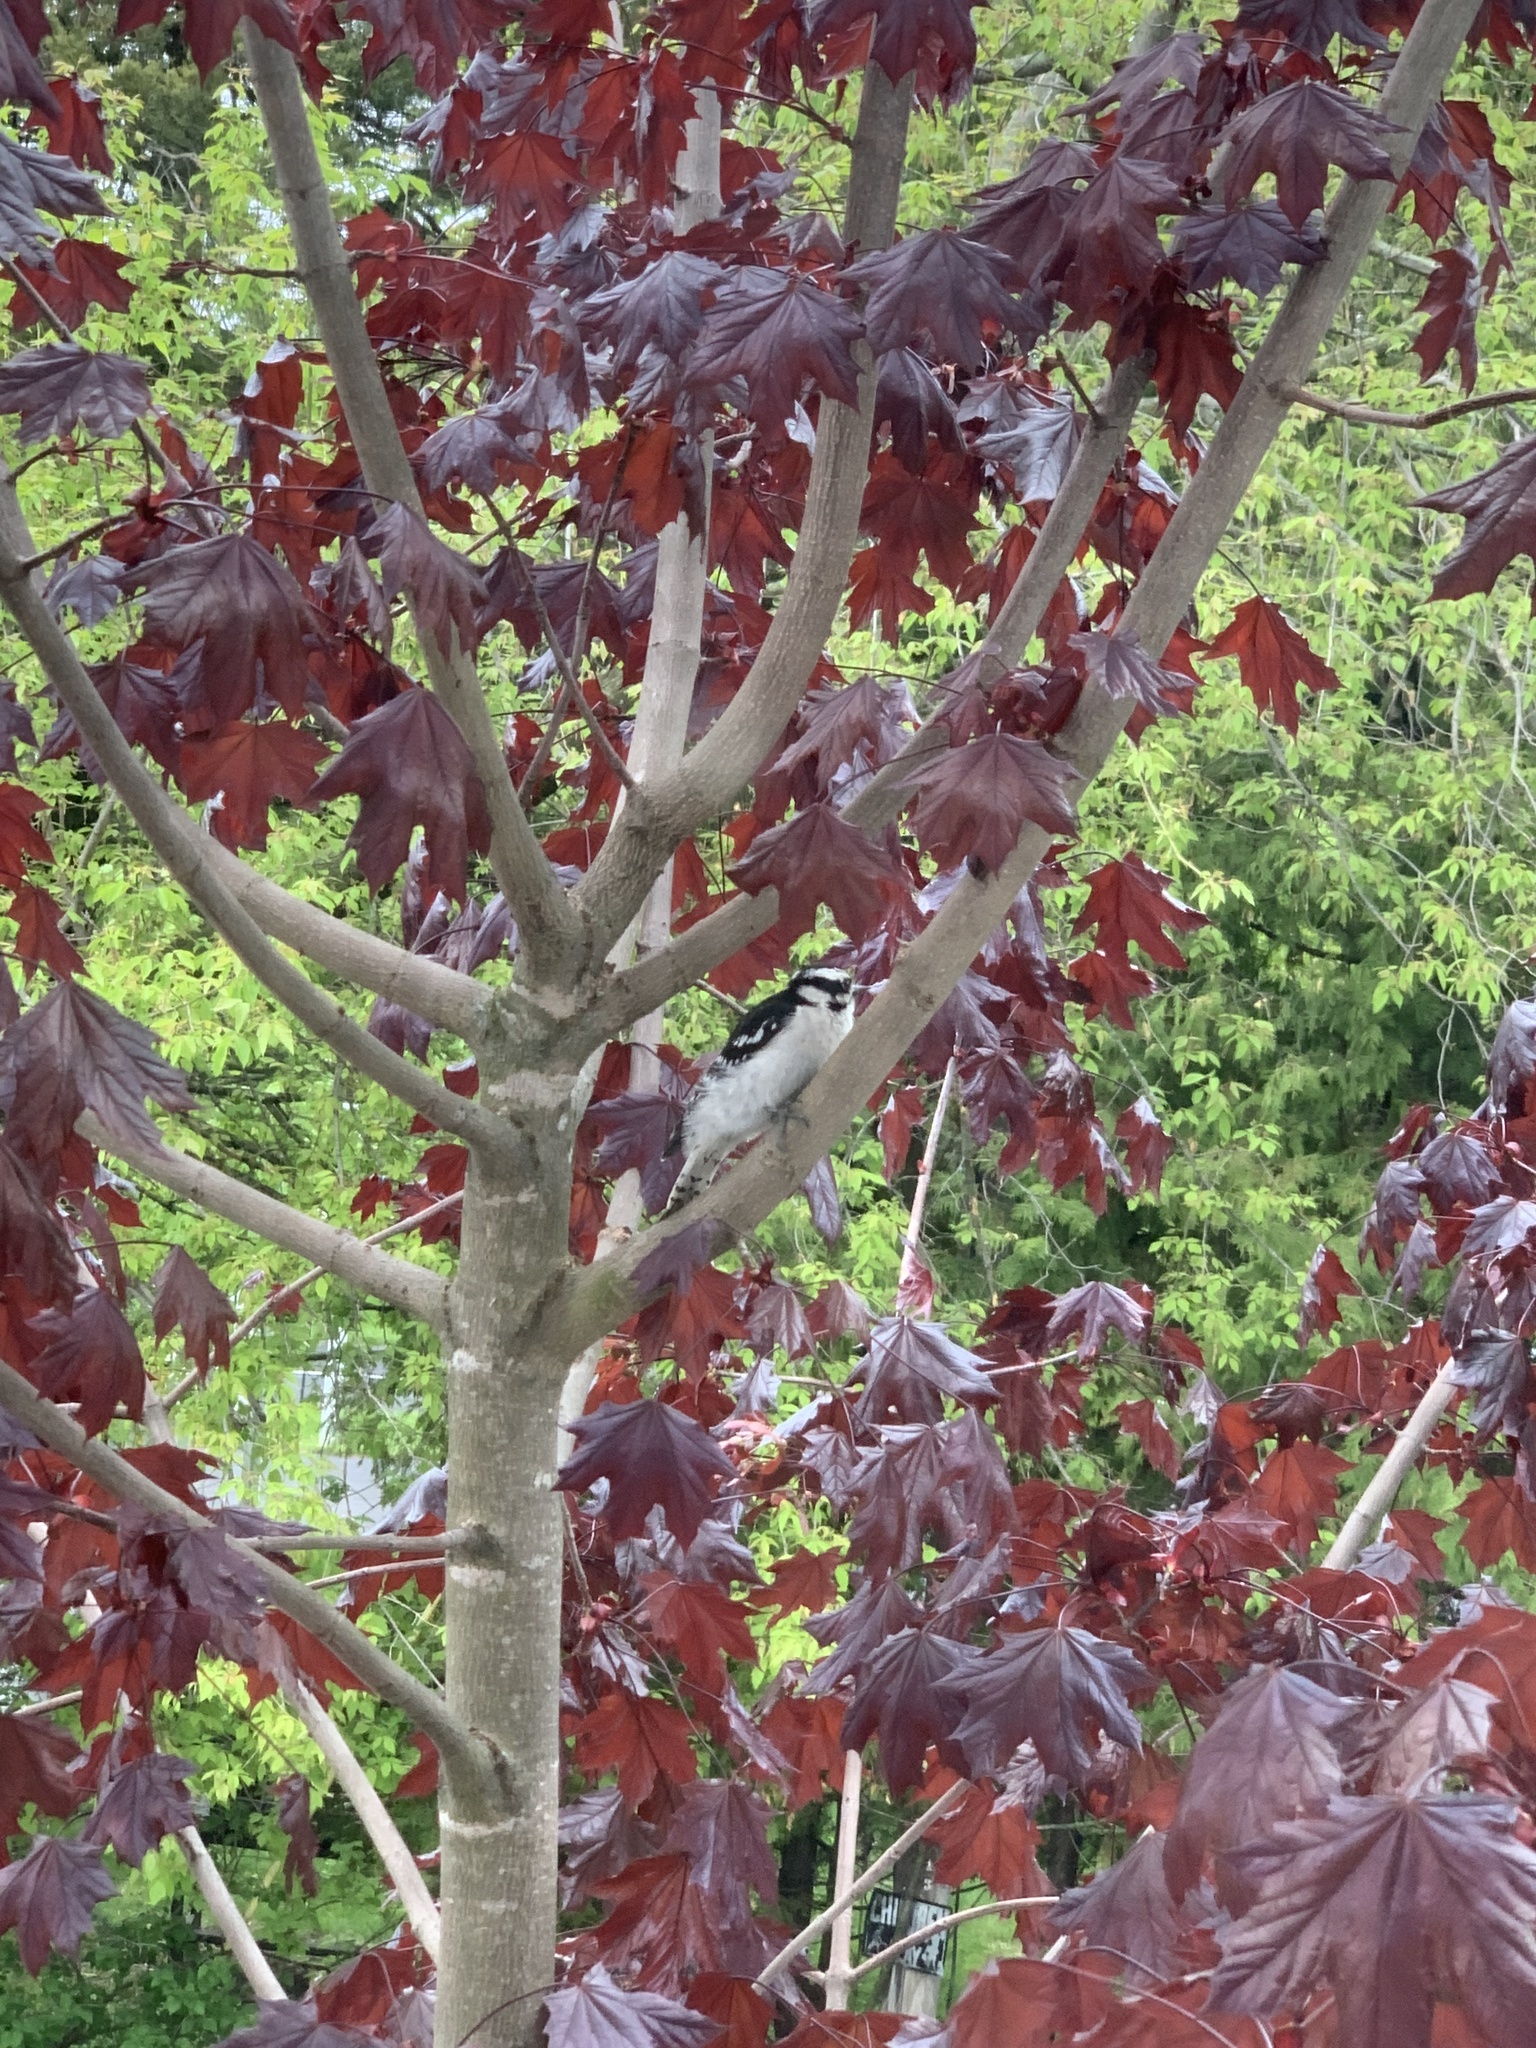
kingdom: Animalia
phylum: Chordata
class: Aves
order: Piciformes
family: Picidae
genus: Dryobates
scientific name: Dryobates pubescens
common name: Downy woodpecker
